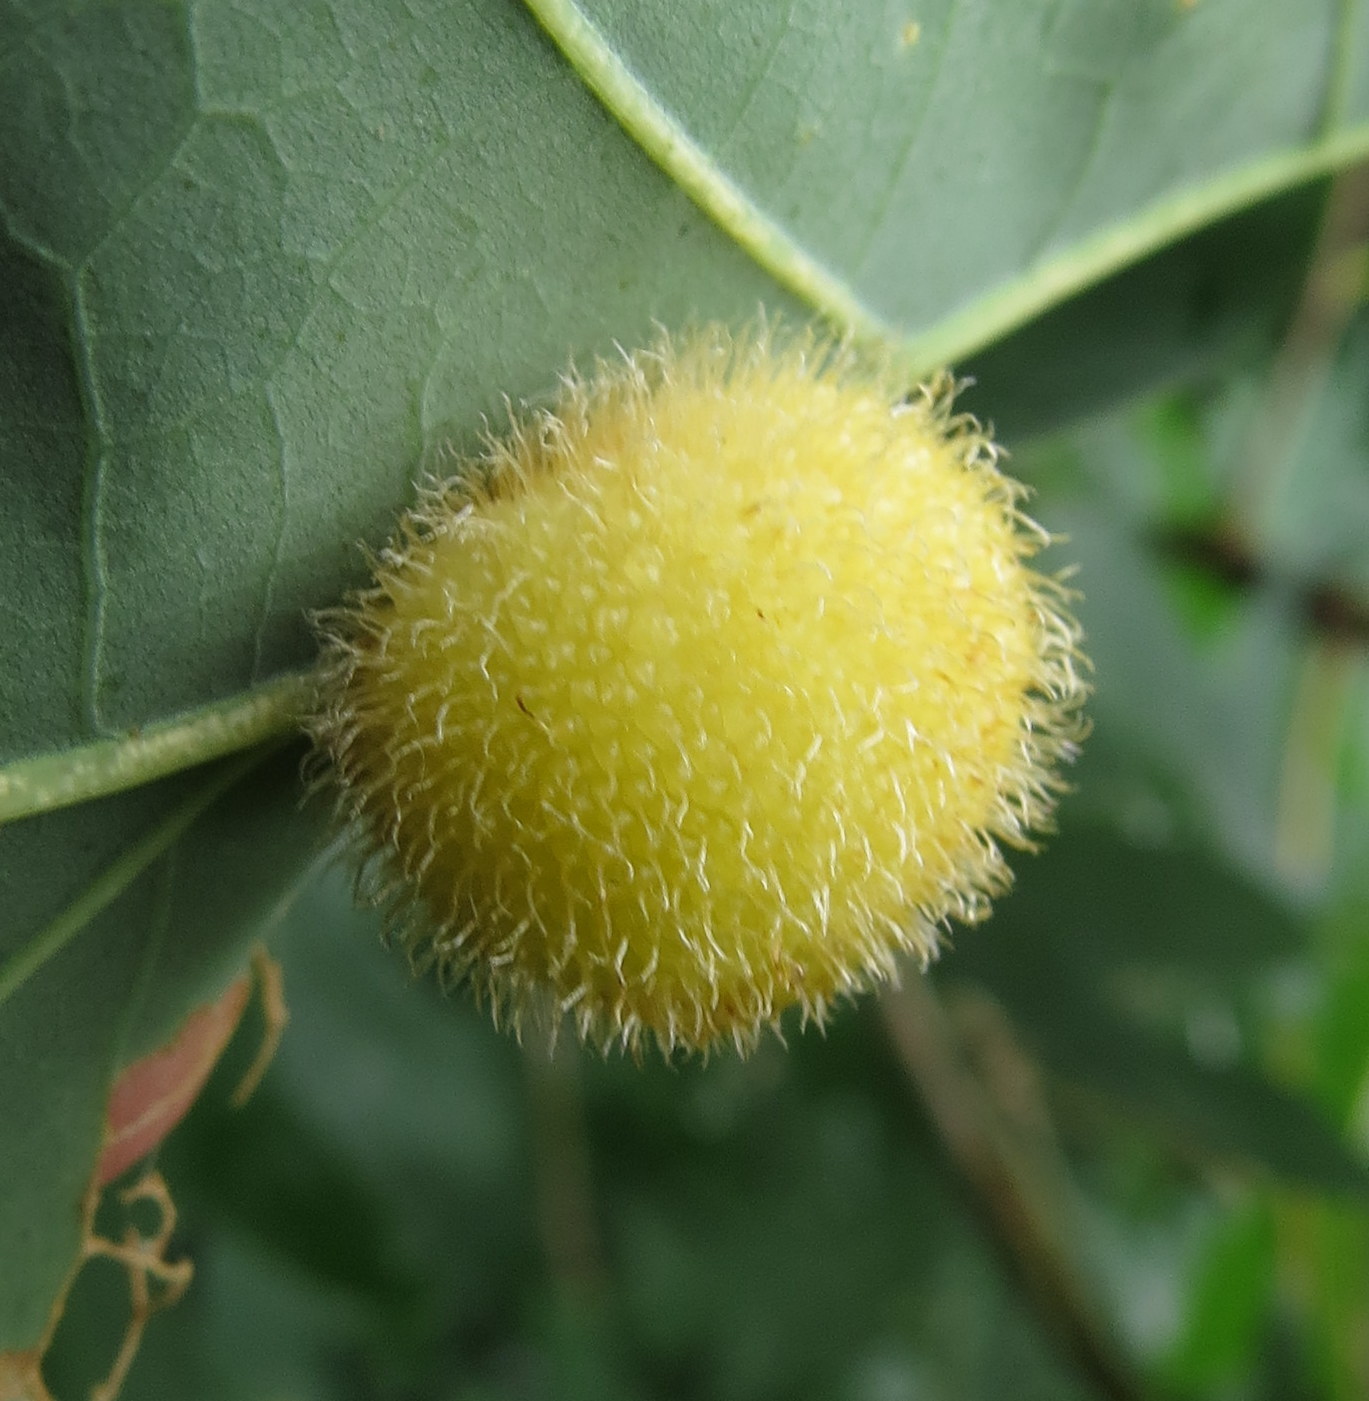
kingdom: Animalia
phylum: Arthropoda
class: Insecta
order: Hymenoptera
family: Cynipidae
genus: Acraspis
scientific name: Acraspis erinacei
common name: Hedgehog gall wasp
